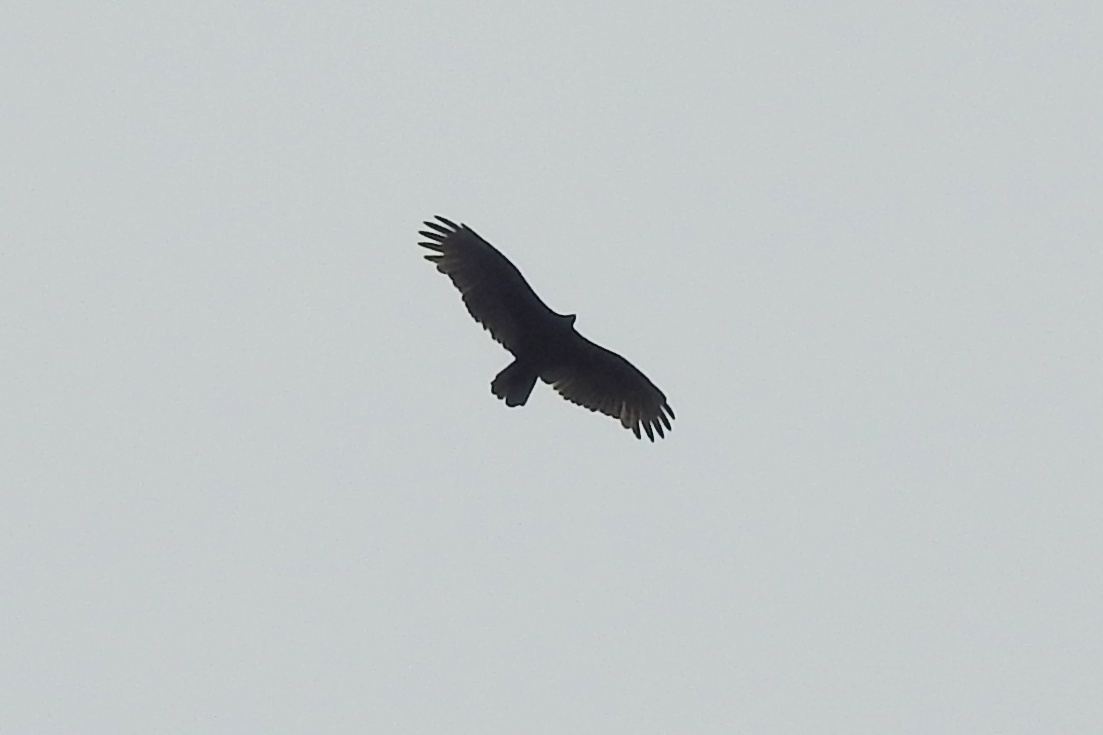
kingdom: Animalia
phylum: Chordata
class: Aves
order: Accipitriformes
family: Cathartidae
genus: Cathartes
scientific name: Cathartes aura
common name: Turkey vulture
